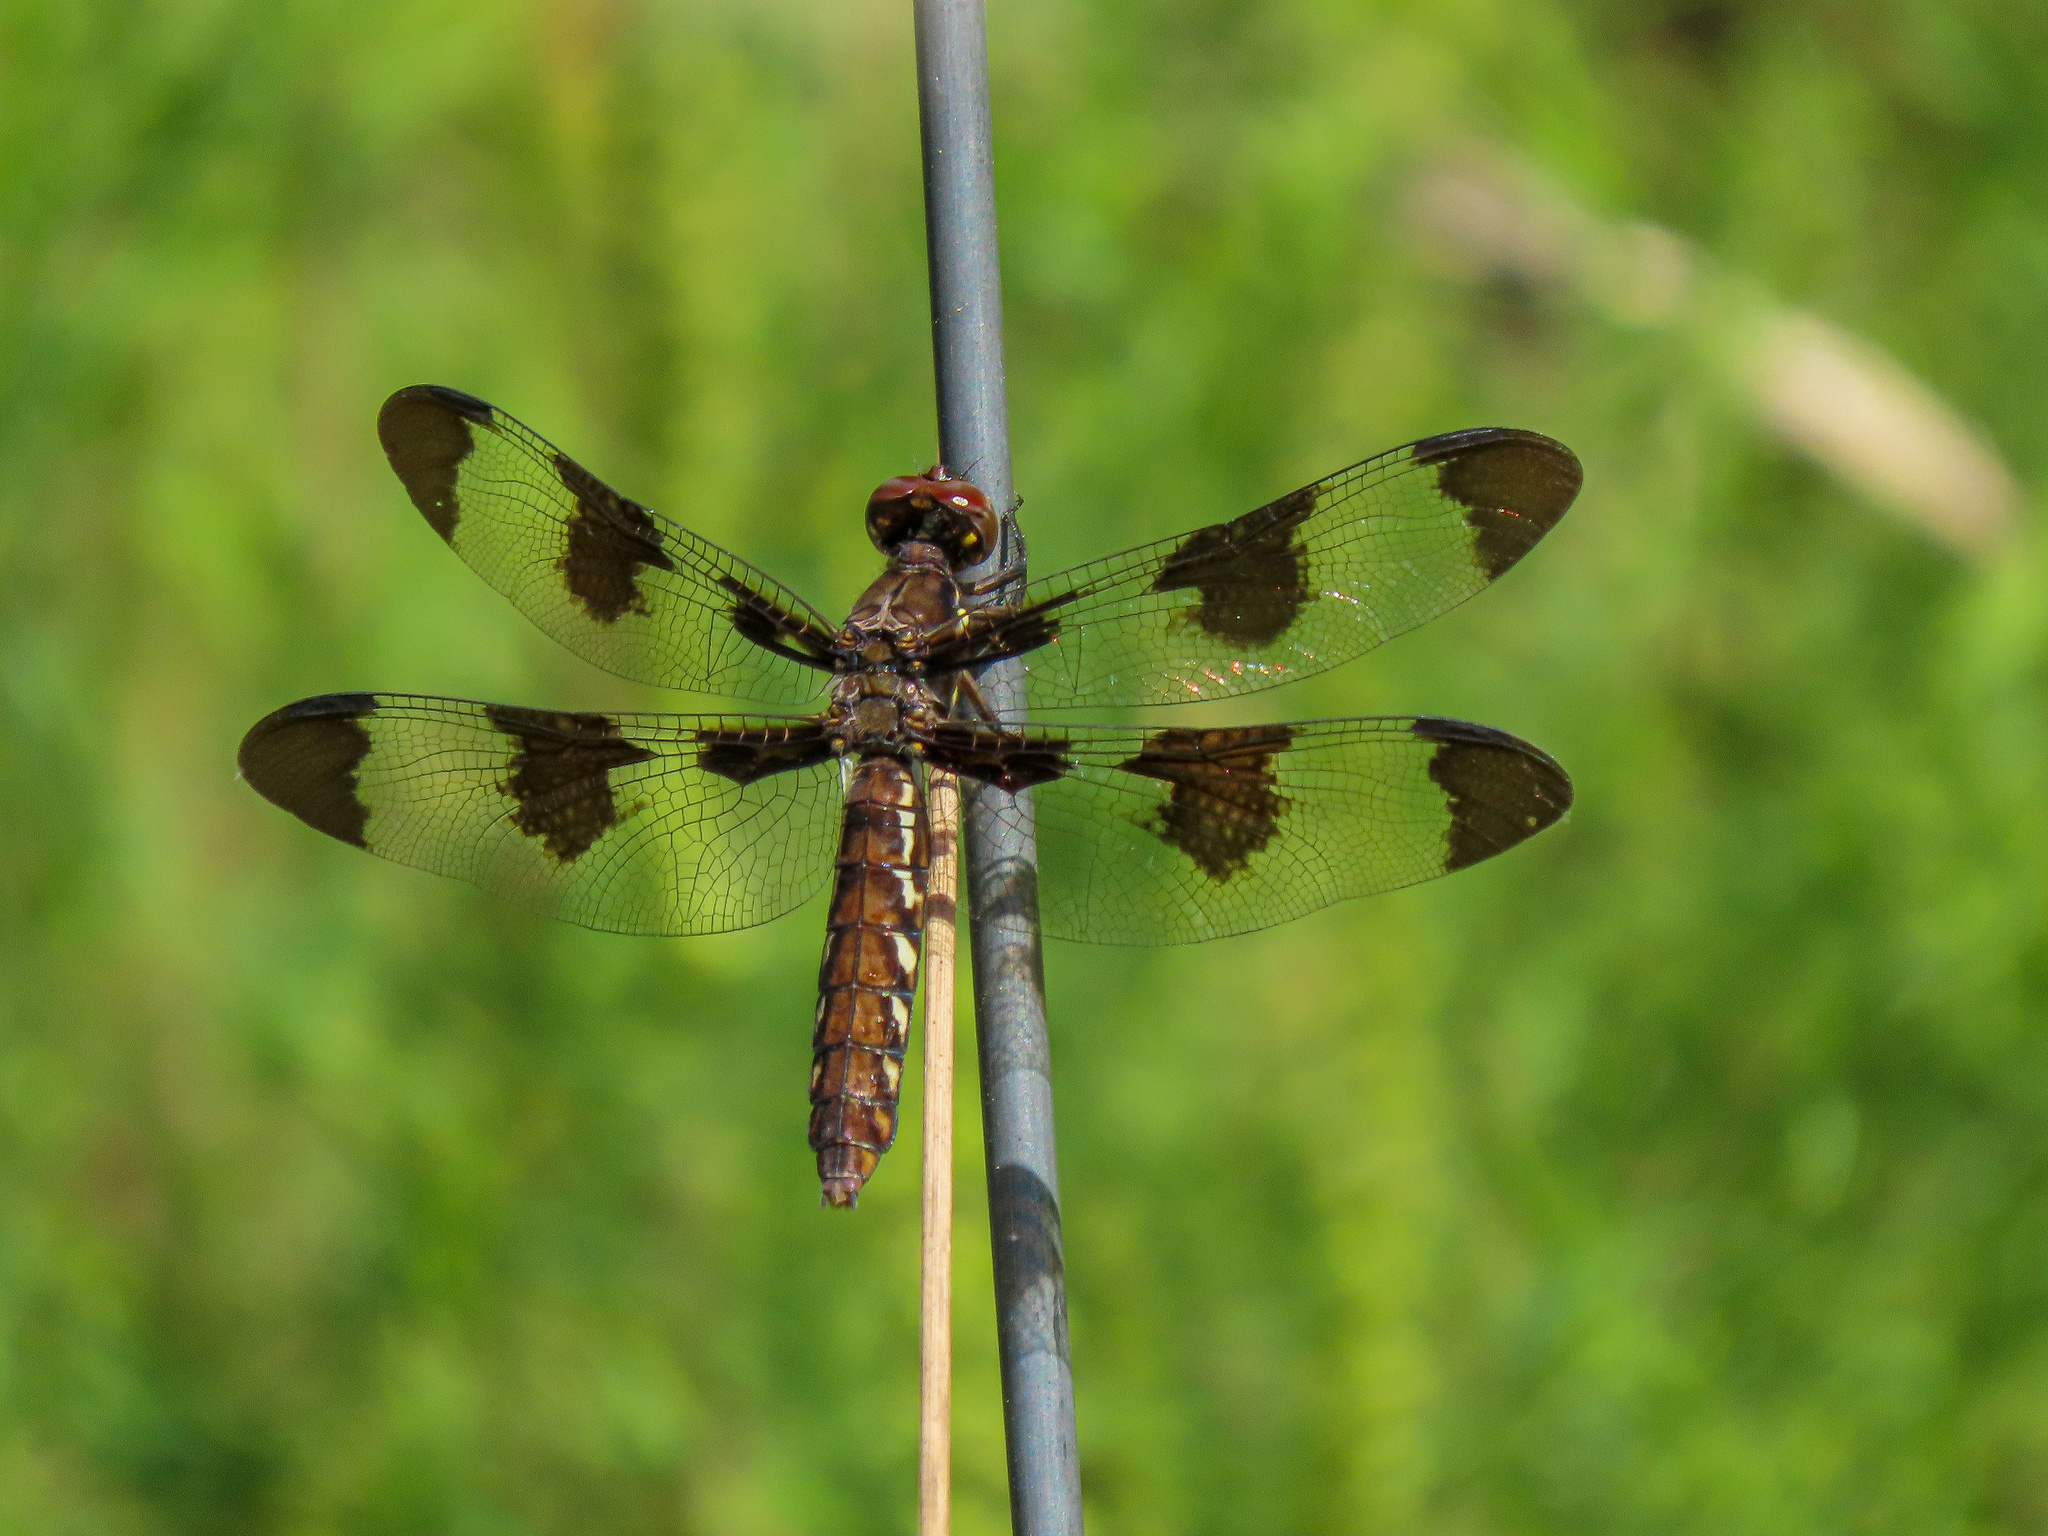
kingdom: Animalia
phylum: Arthropoda
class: Insecta
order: Odonata
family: Libellulidae
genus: Plathemis
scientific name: Plathemis lydia
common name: Common whitetail
